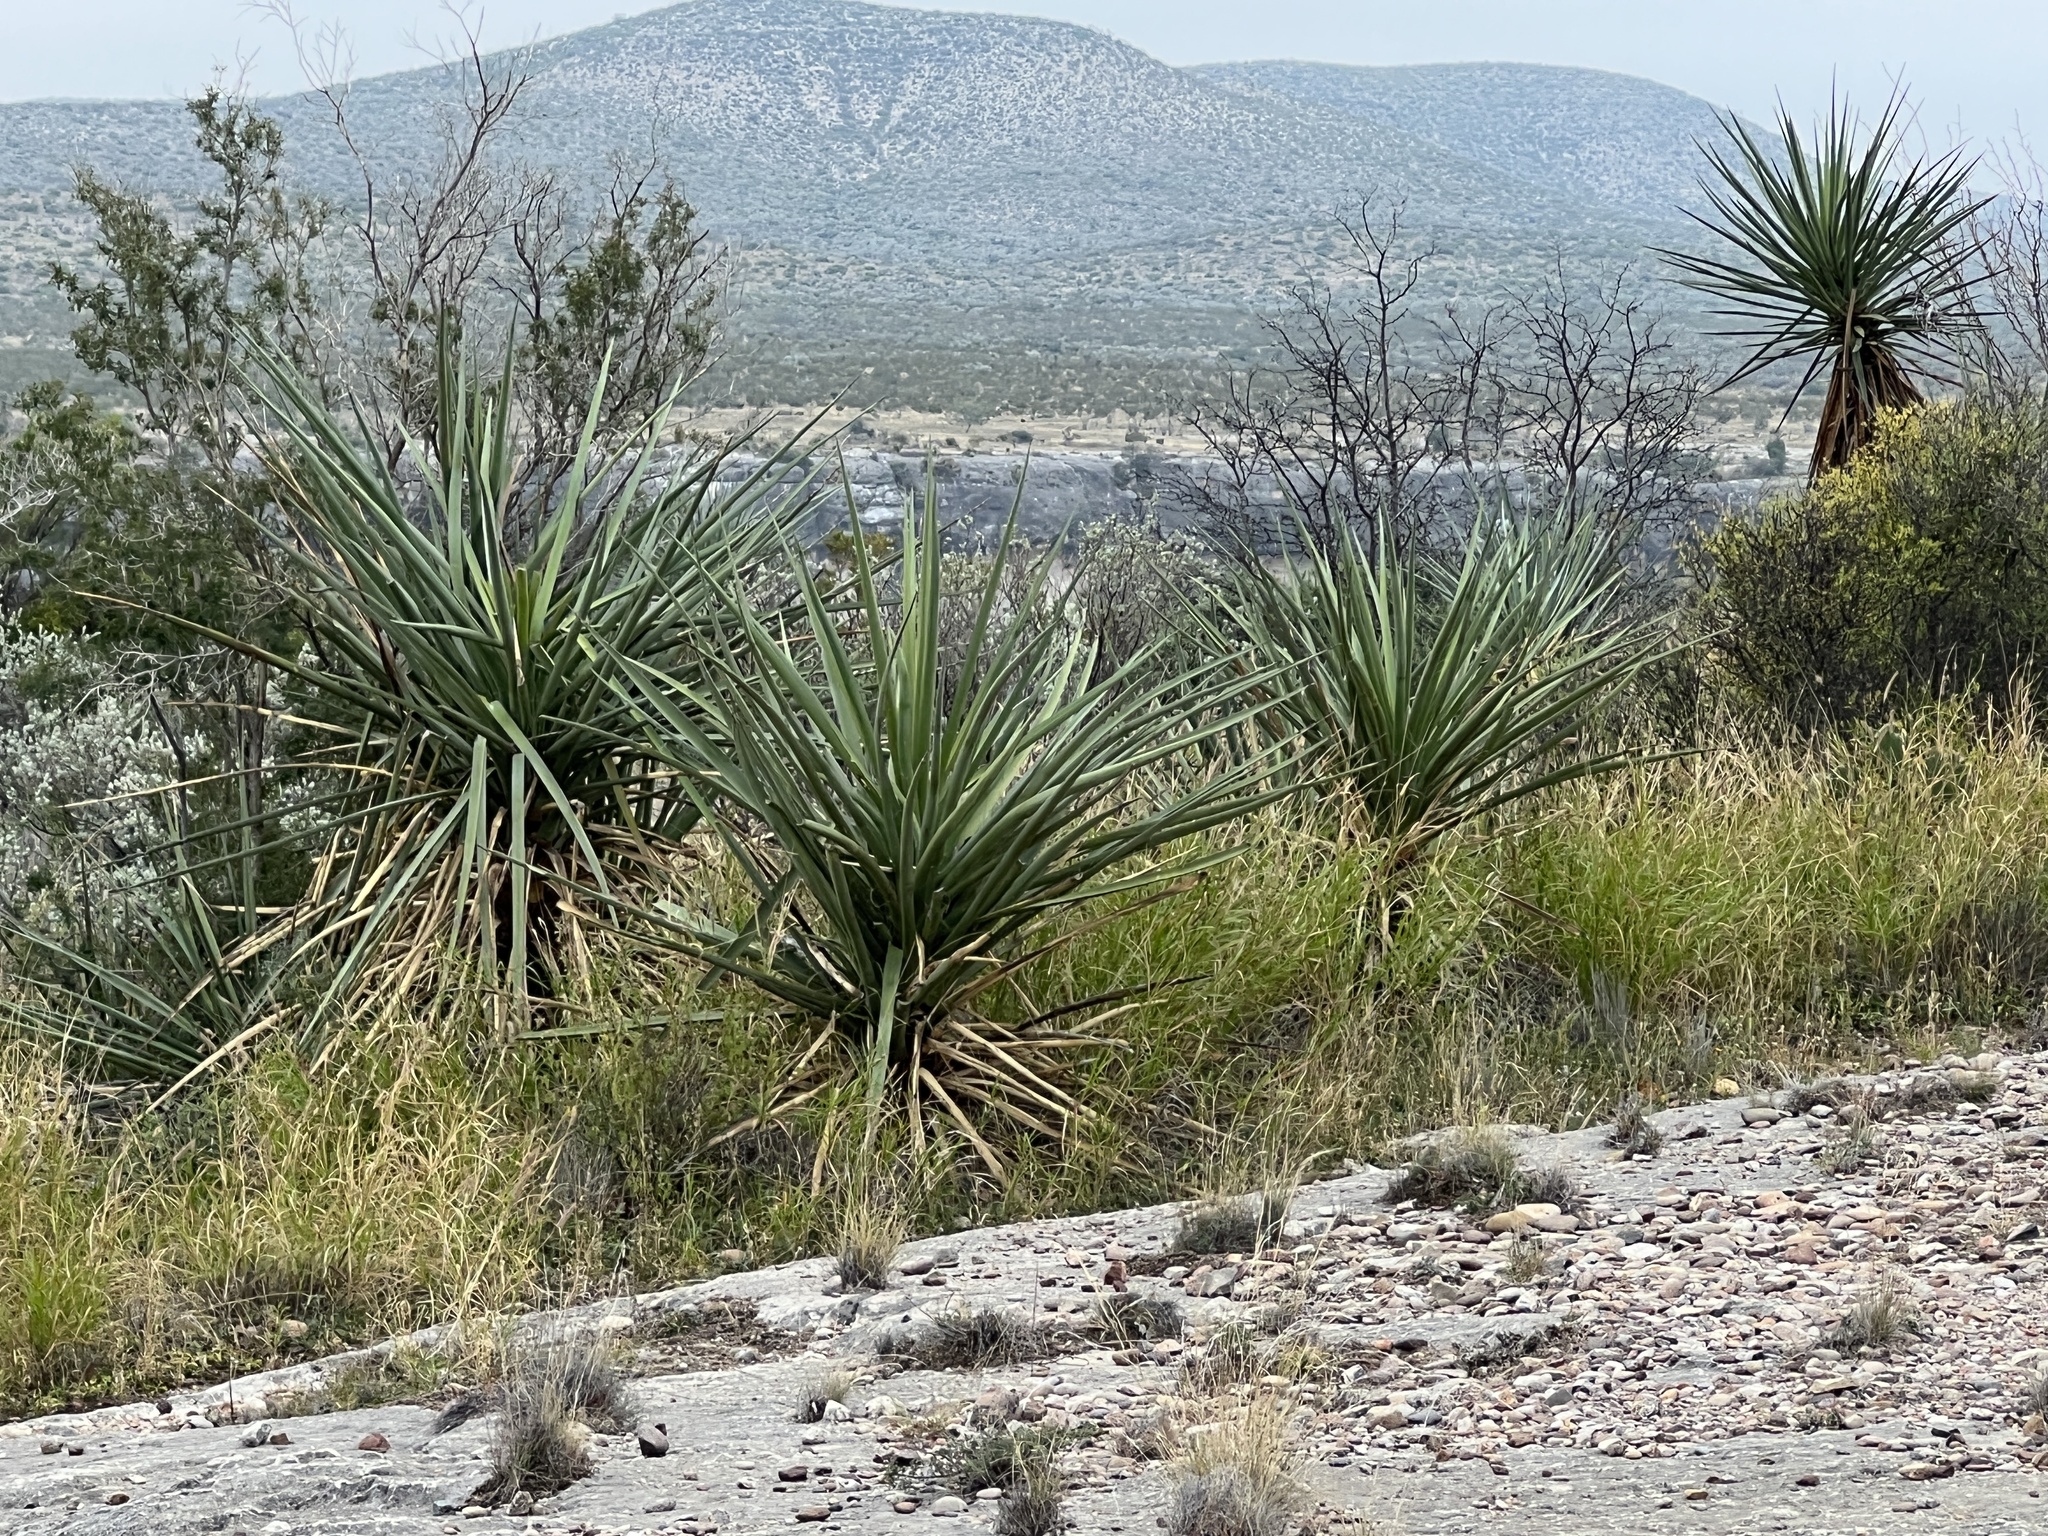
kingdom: Plantae
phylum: Tracheophyta
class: Liliopsida
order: Asparagales
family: Asparagaceae
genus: Yucca
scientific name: Yucca treculiana
